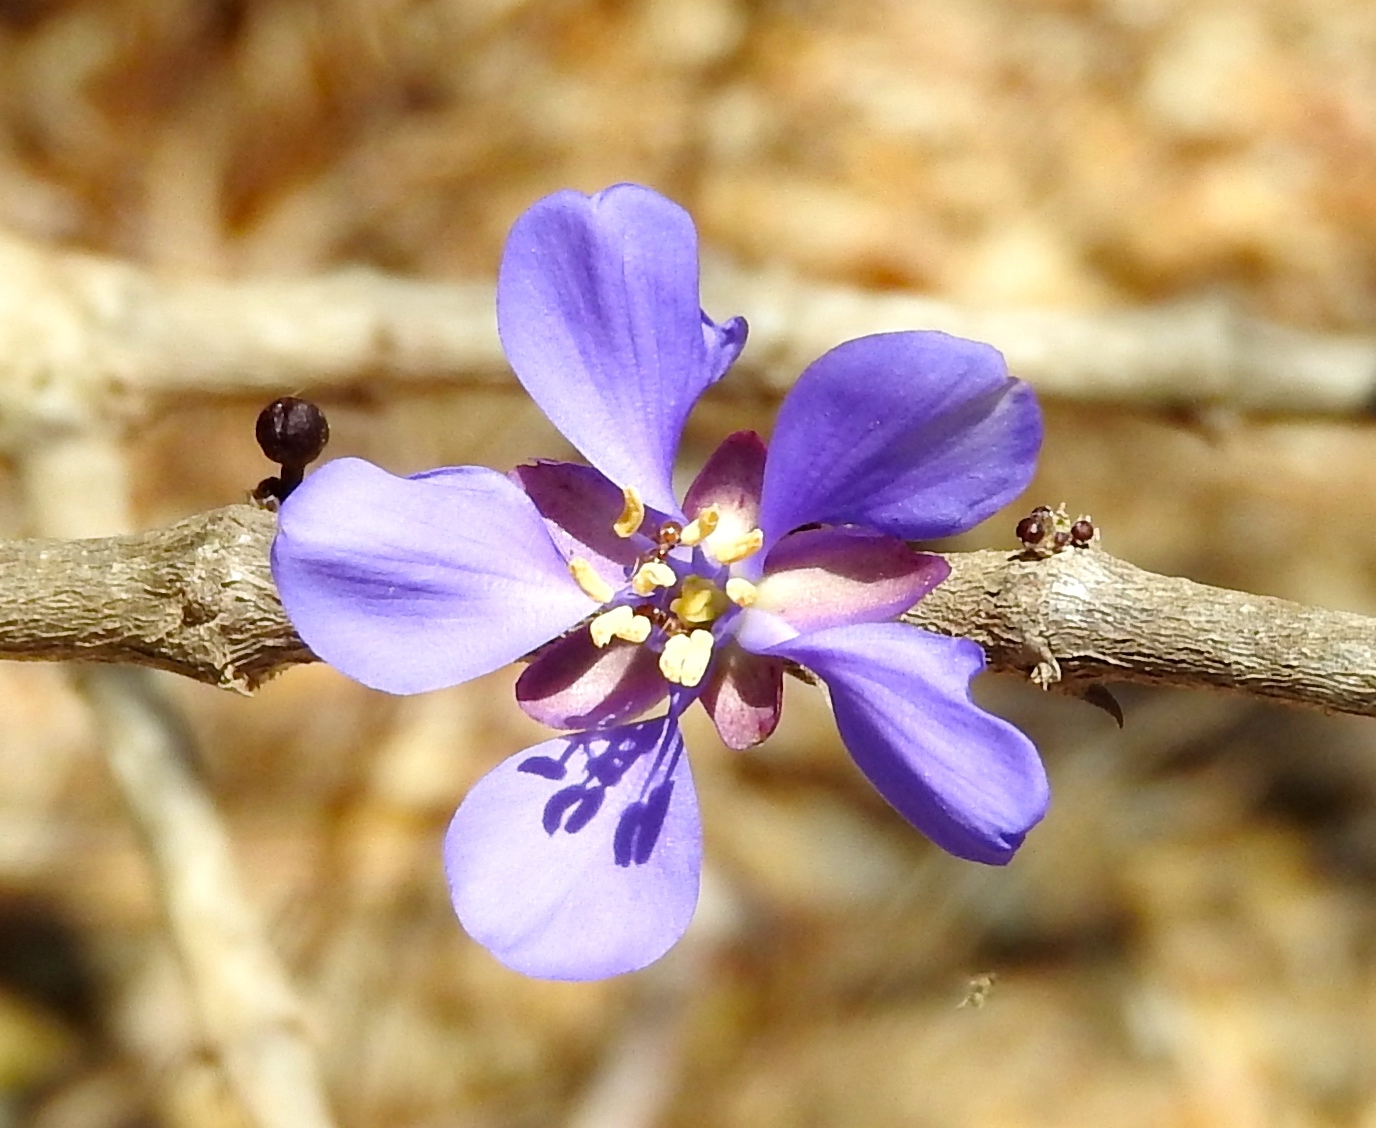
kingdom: Plantae
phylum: Tracheophyta
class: Magnoliopsida
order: Zygophyllales
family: Zygophyllaceae
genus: Guaiacum
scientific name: Guaiacum coulteri
